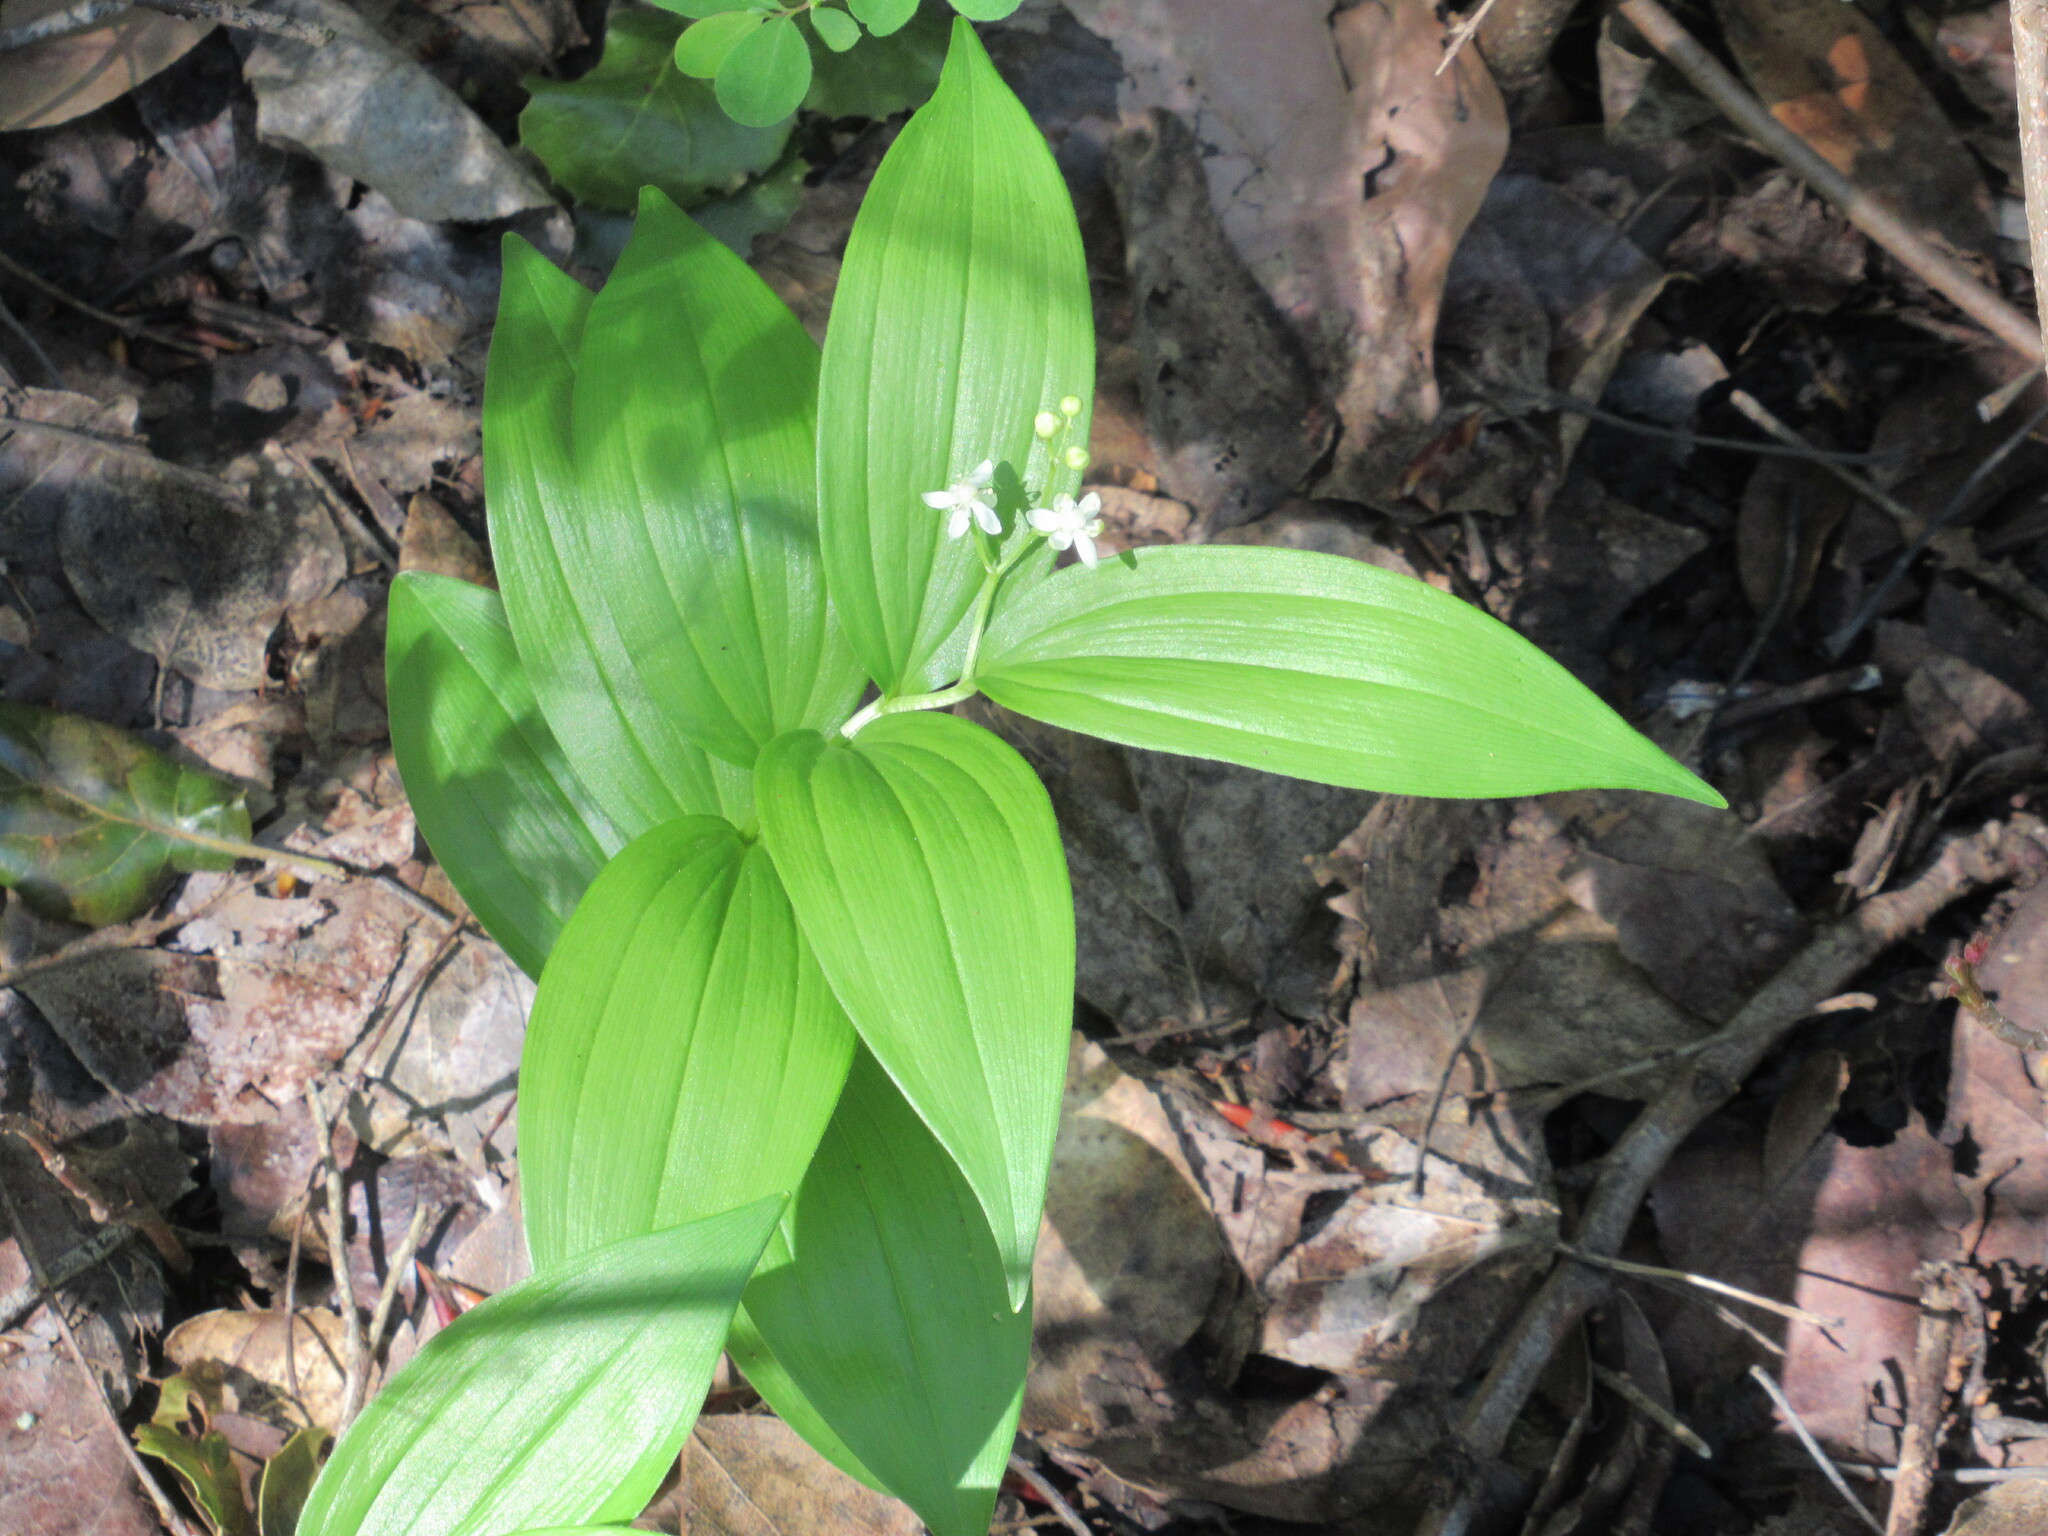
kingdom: Plantae
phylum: Tracheophyta
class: Liliopsida
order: Asparagales
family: Asparagaceae
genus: Maianthemum
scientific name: Maianthemum stellatum
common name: Little false solomon's seal
